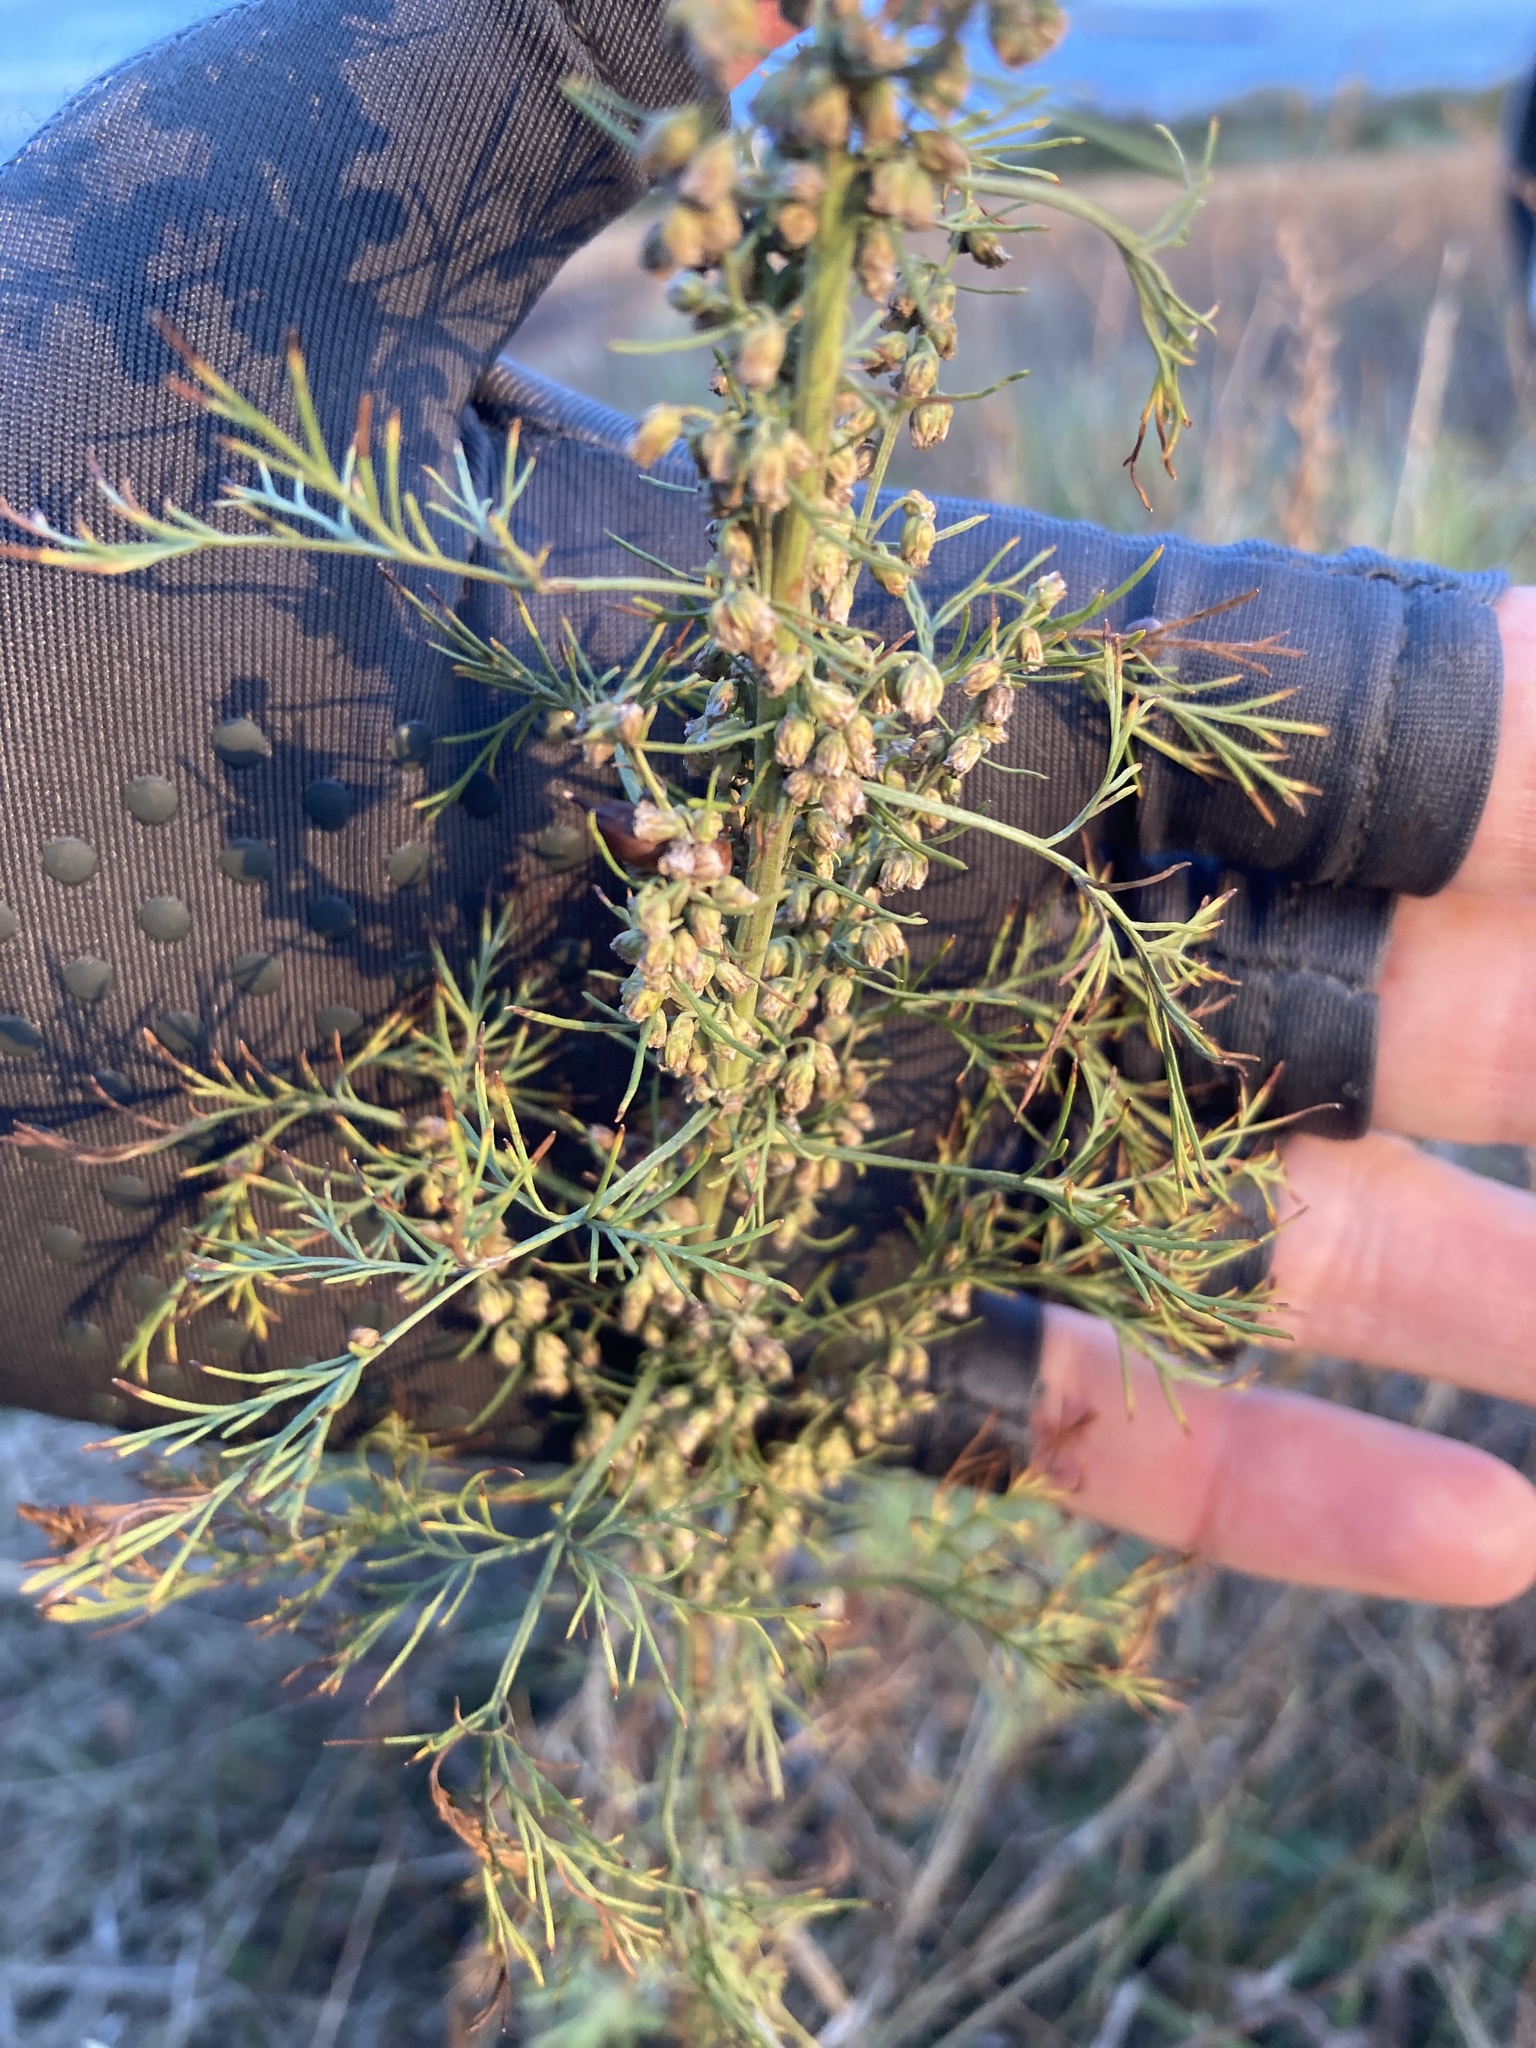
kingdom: Plantae
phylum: Tracheophyta
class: Magnoliopsida
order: Asterales
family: Asteraceae
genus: Artemisia
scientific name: Artemisia abrotanum
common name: Southernwood
